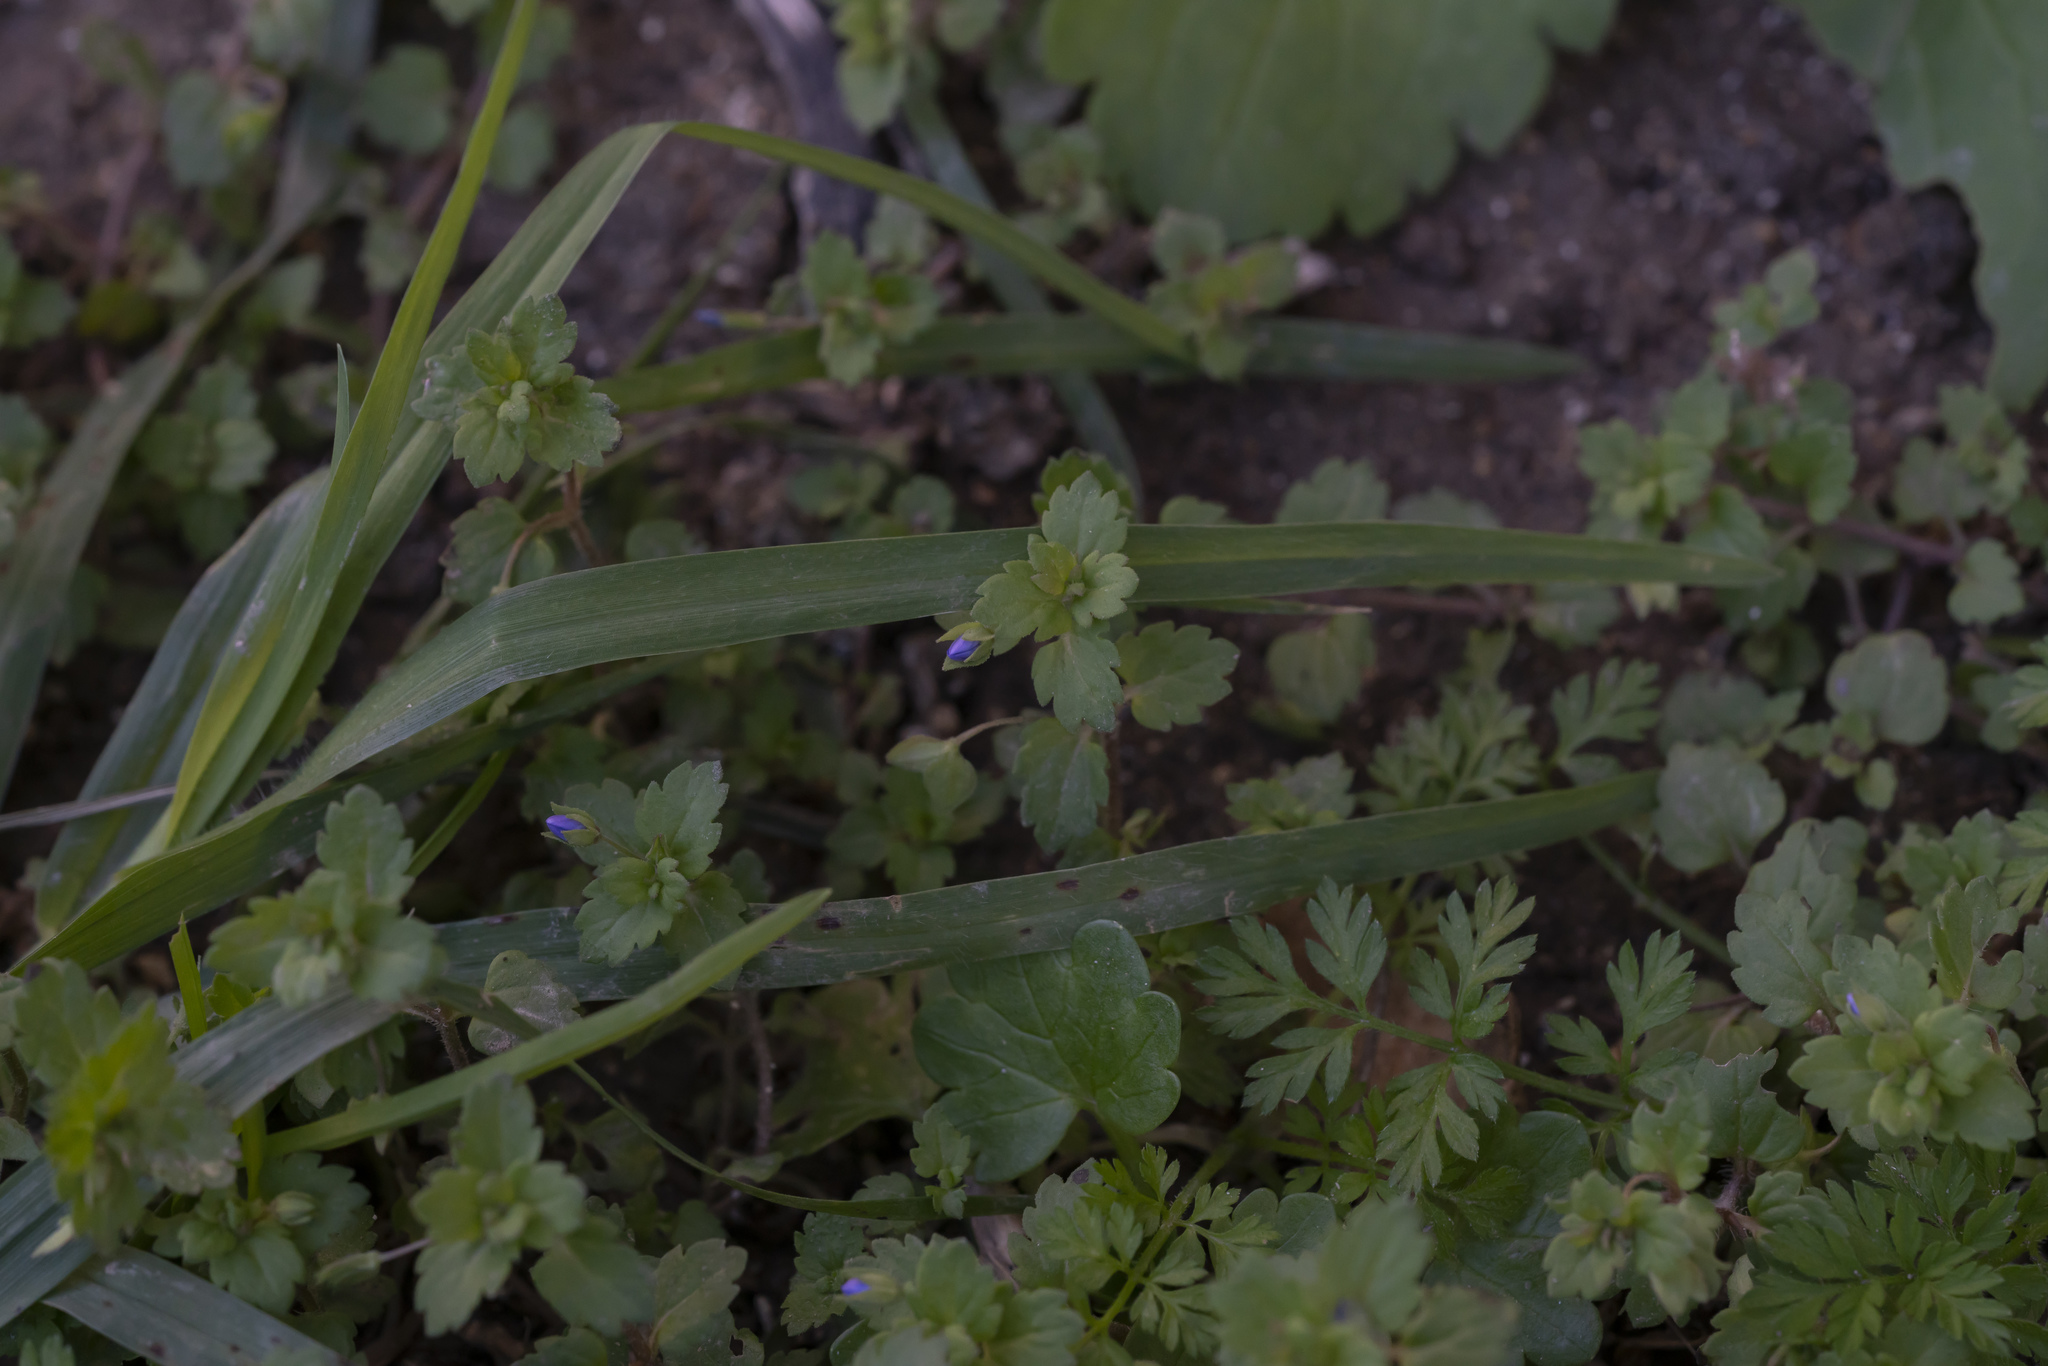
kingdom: Plantae
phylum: Tracheophyta
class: Magnoliopsida
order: Lamiales
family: Plantaginaceae
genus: Veronica
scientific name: Veronica persica
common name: Common field-speedwell
